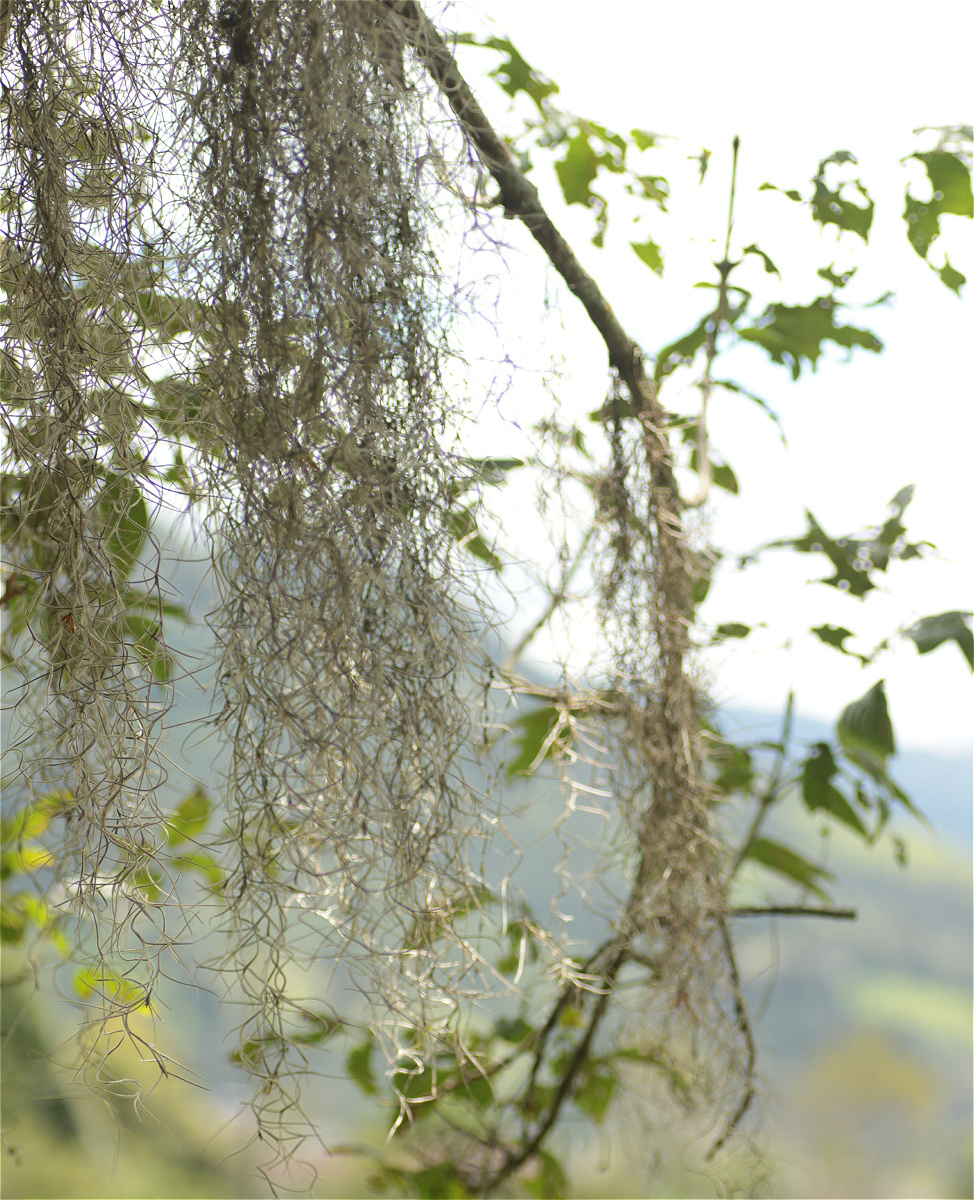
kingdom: Plantae
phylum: Tracheophyta
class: Liliopsida
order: Poales
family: Bromeliaceae
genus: Tillandsia
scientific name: Tillandsia usneoides
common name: Spanish moss
